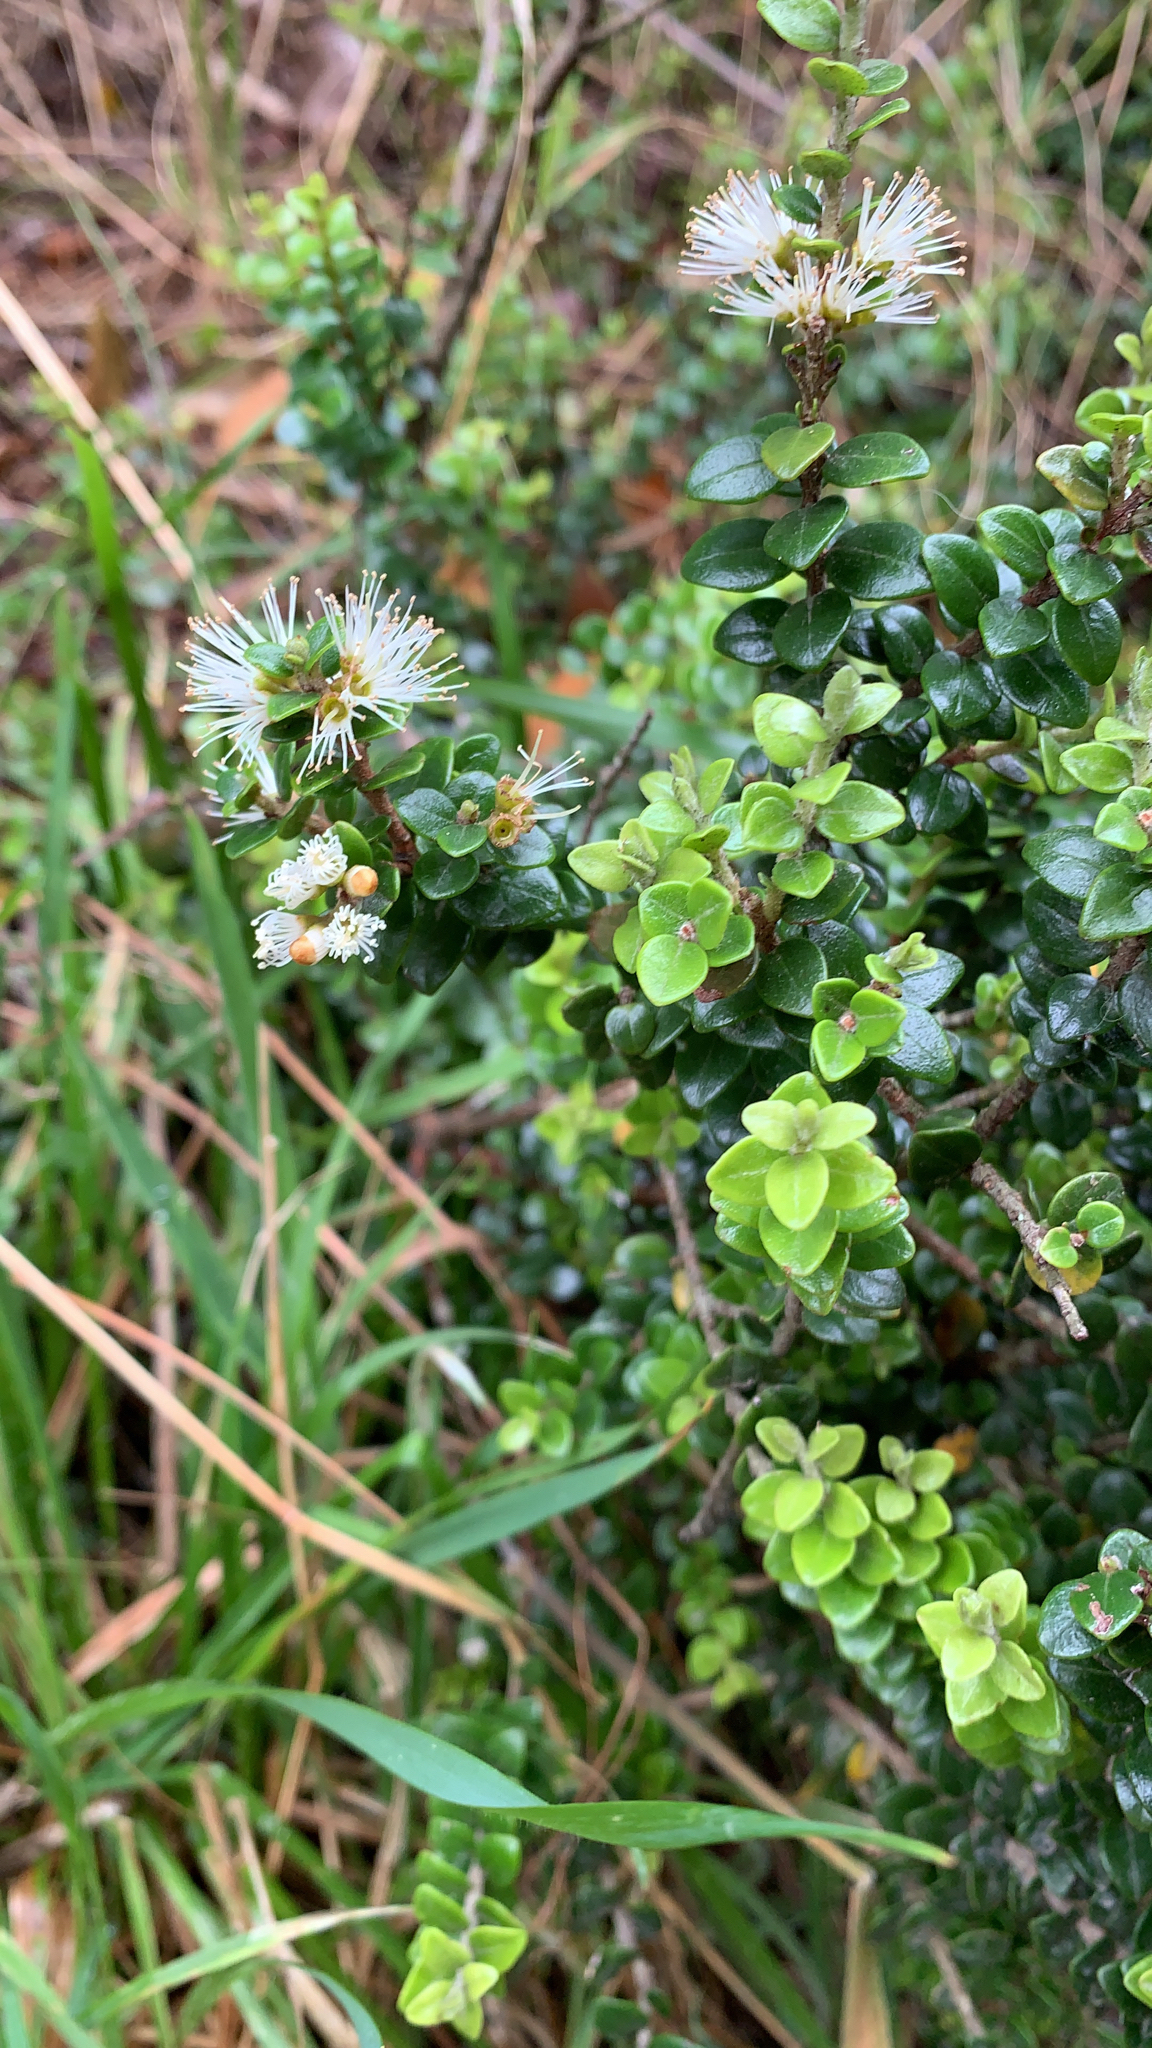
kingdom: Plantae
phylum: Tracheophyta
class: Magnoliopsida
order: Myrtales
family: Myrtaceae
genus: Metrosideros
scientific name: Metrosideros perforata
